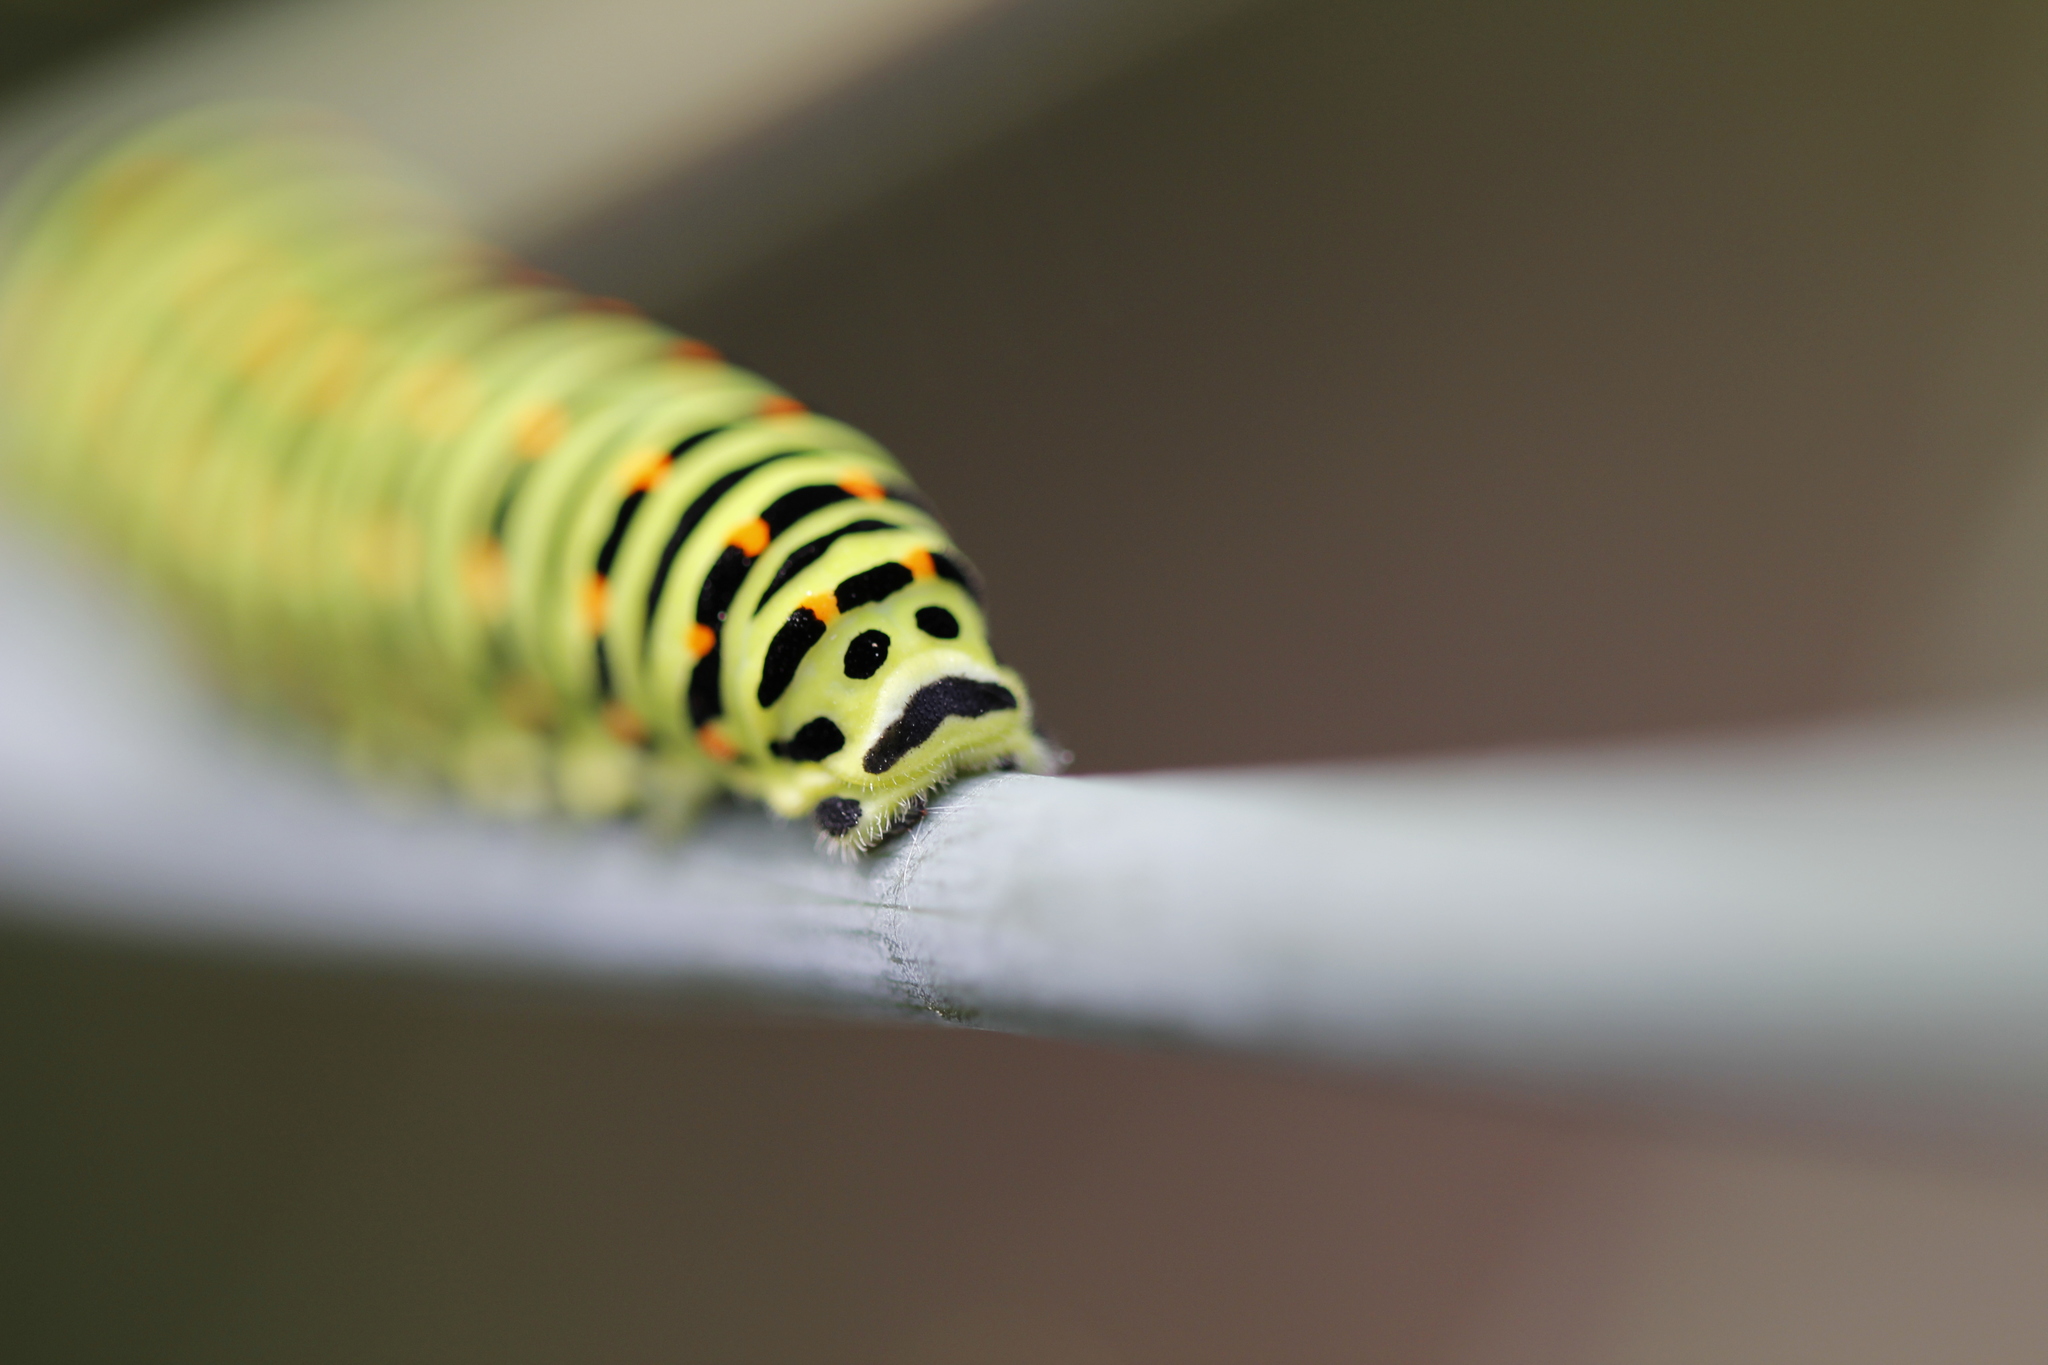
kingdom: Animalia
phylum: Arthropoda
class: Insecta
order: Lepidoptera
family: Papilionidae
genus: Papilio
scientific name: Papilio machaon
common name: Swallowtail
